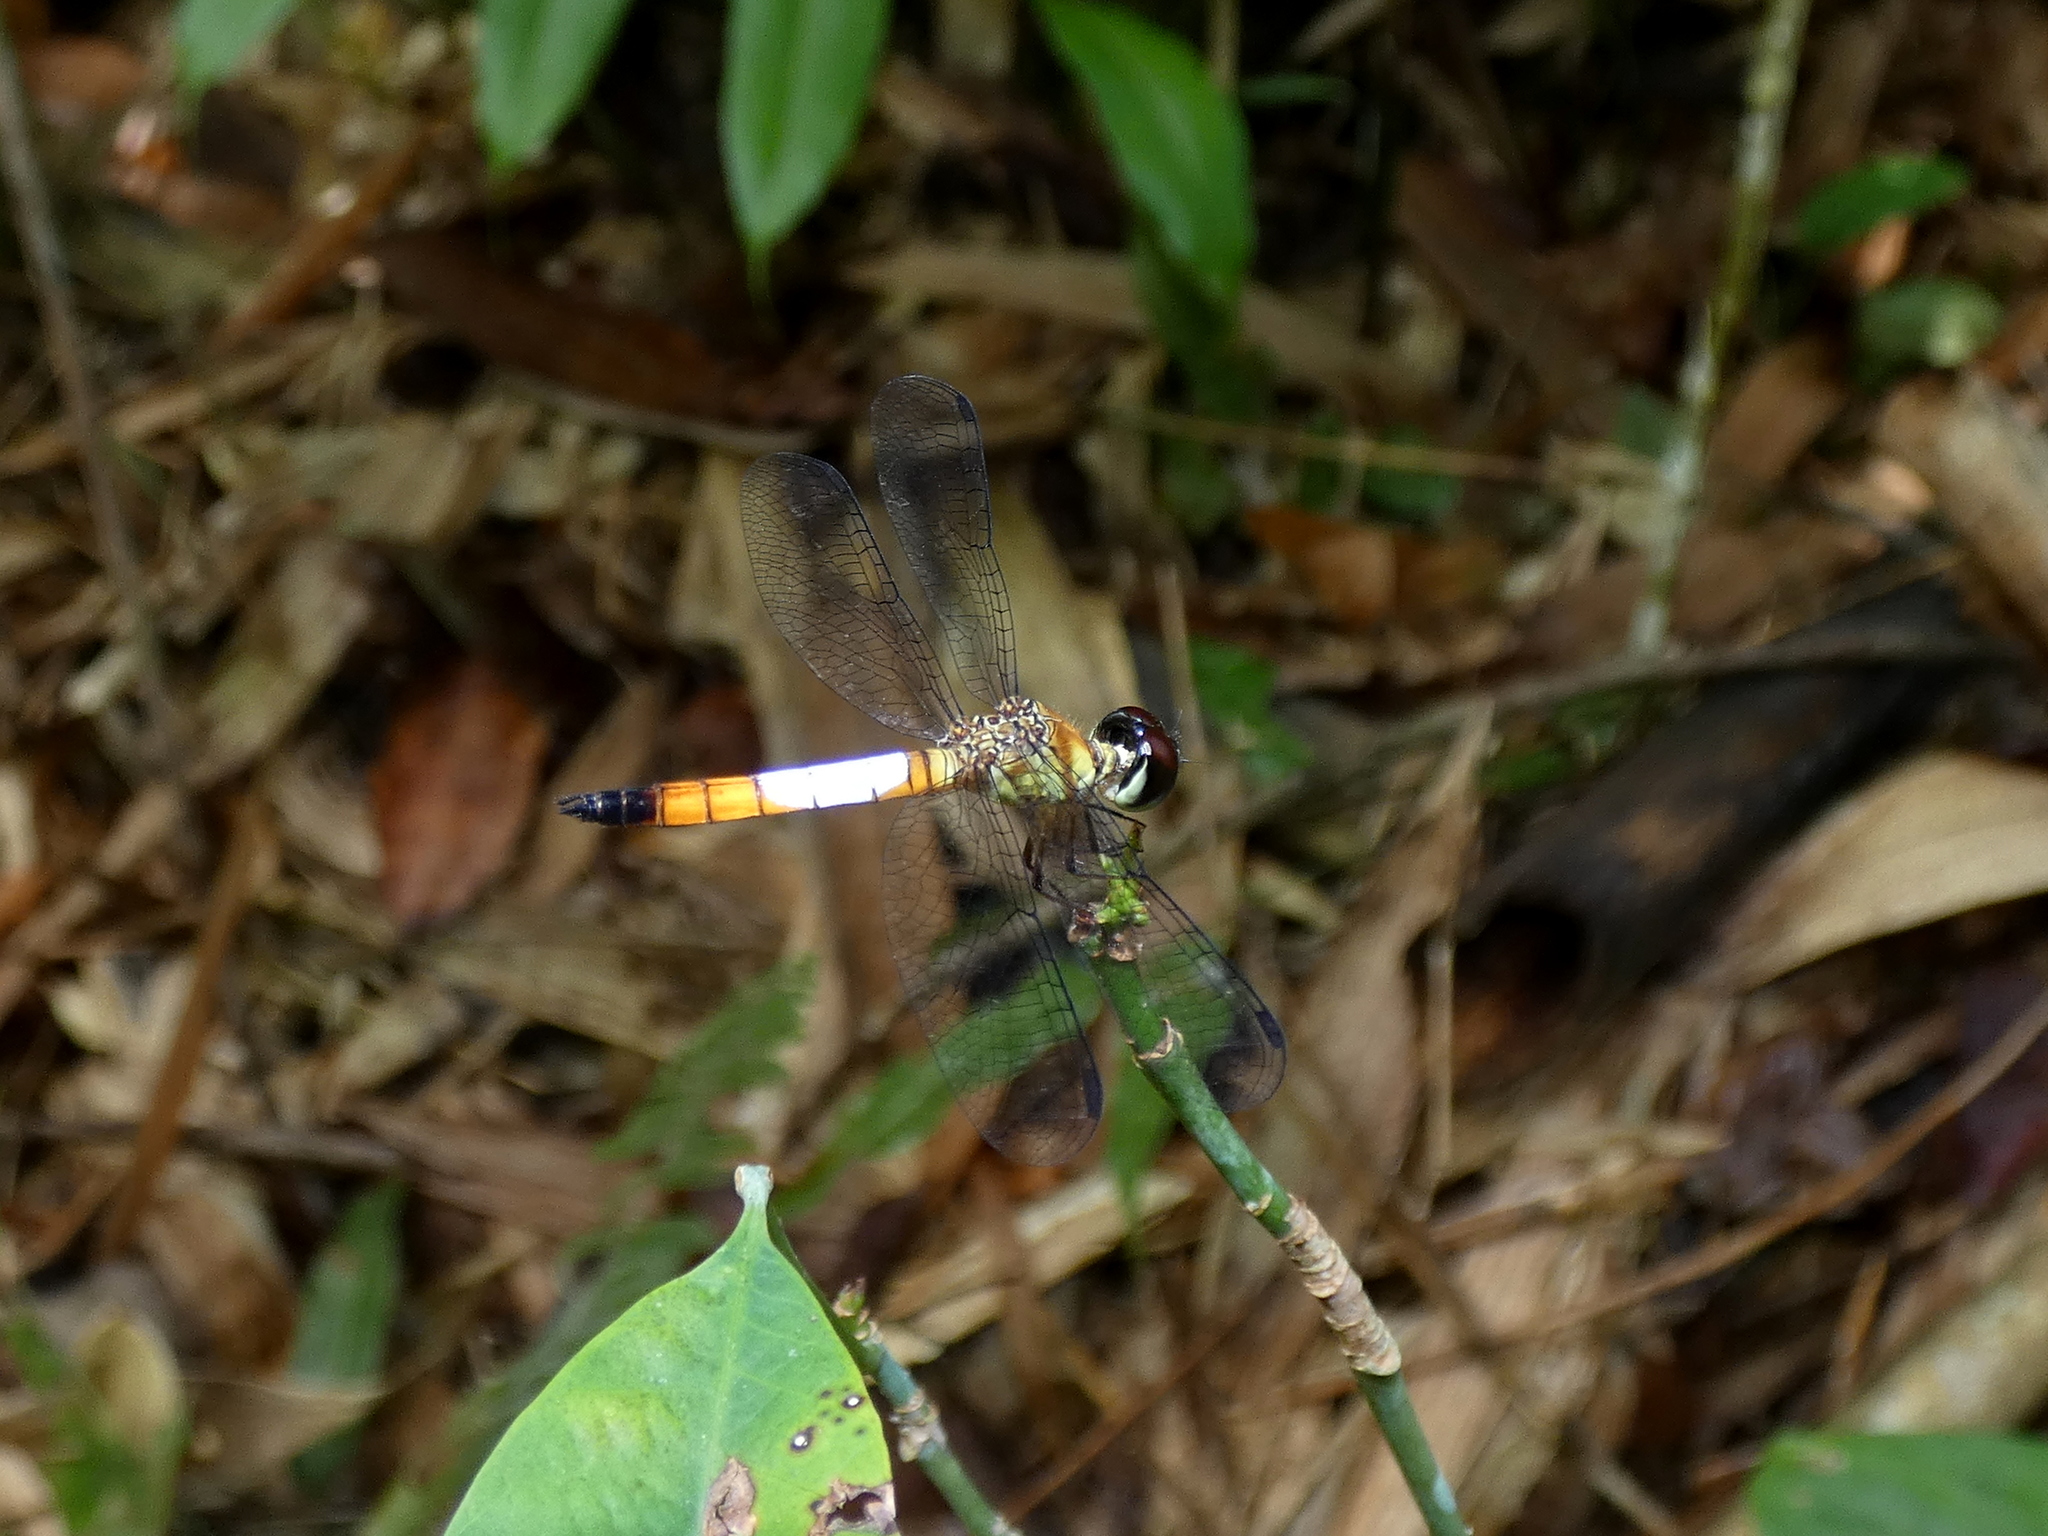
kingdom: Animalia
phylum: Arthropoda
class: Insecta
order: Odonata
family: Libellulidae
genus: Brachygonia
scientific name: Brachygonia oculata
